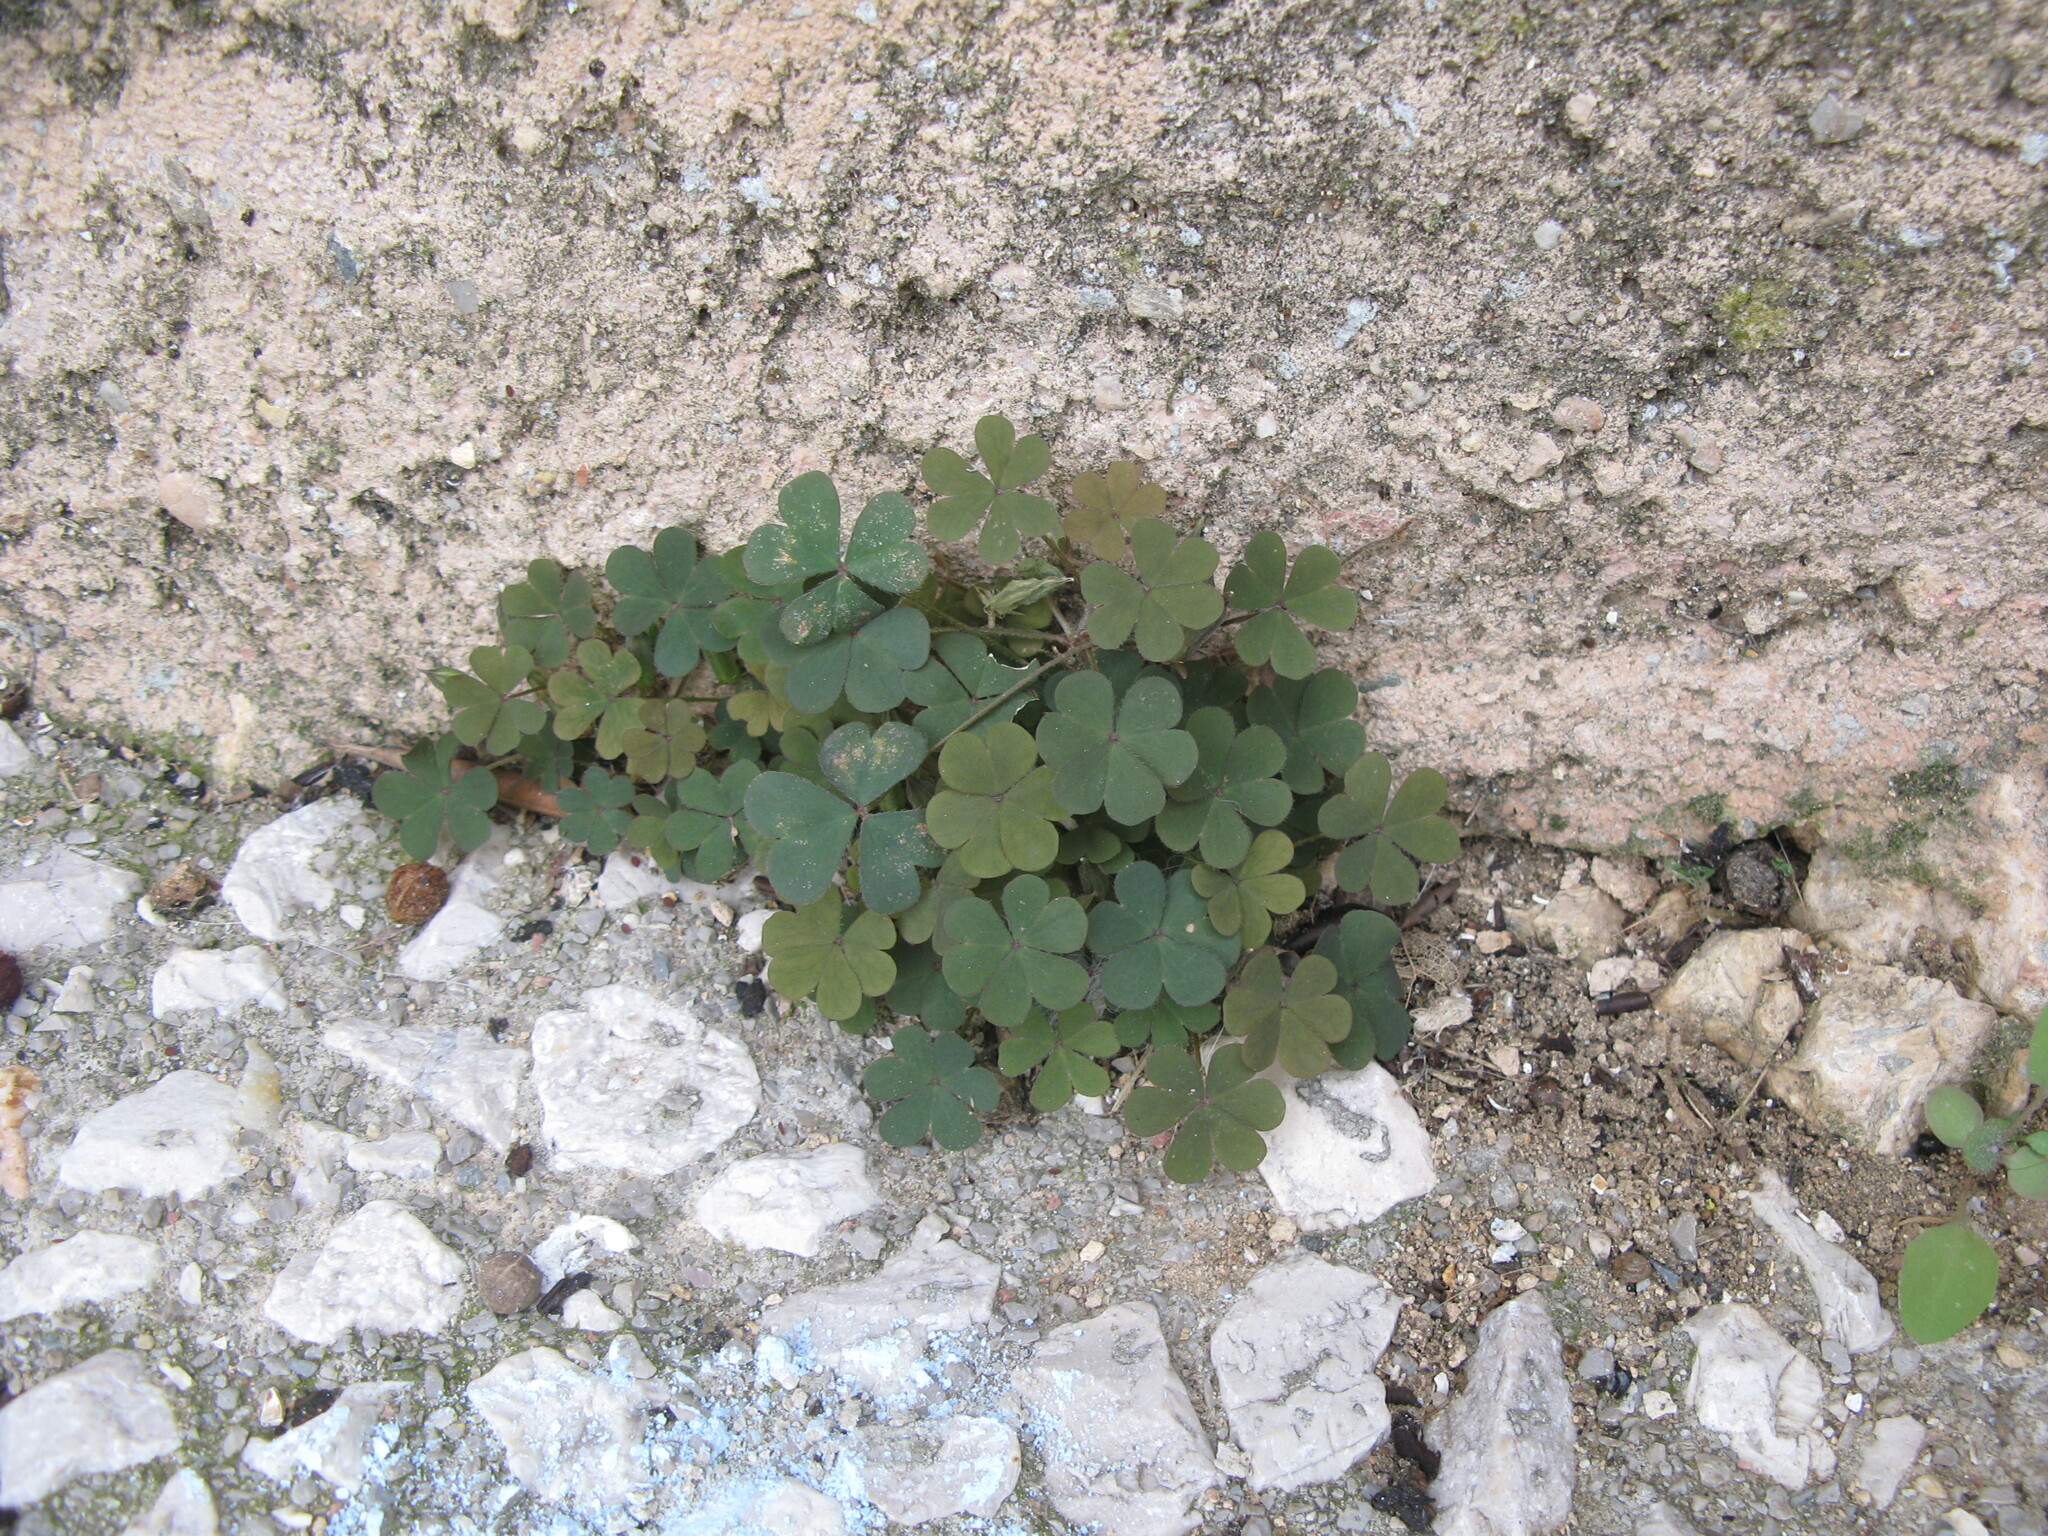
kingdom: Plantae
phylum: Tracheophyta
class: Magnoliopsida
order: Oxalidales
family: Oxalidaceae
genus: Oxalis
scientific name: Oxalis corniculata
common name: Procumbent yellow-sorrel
